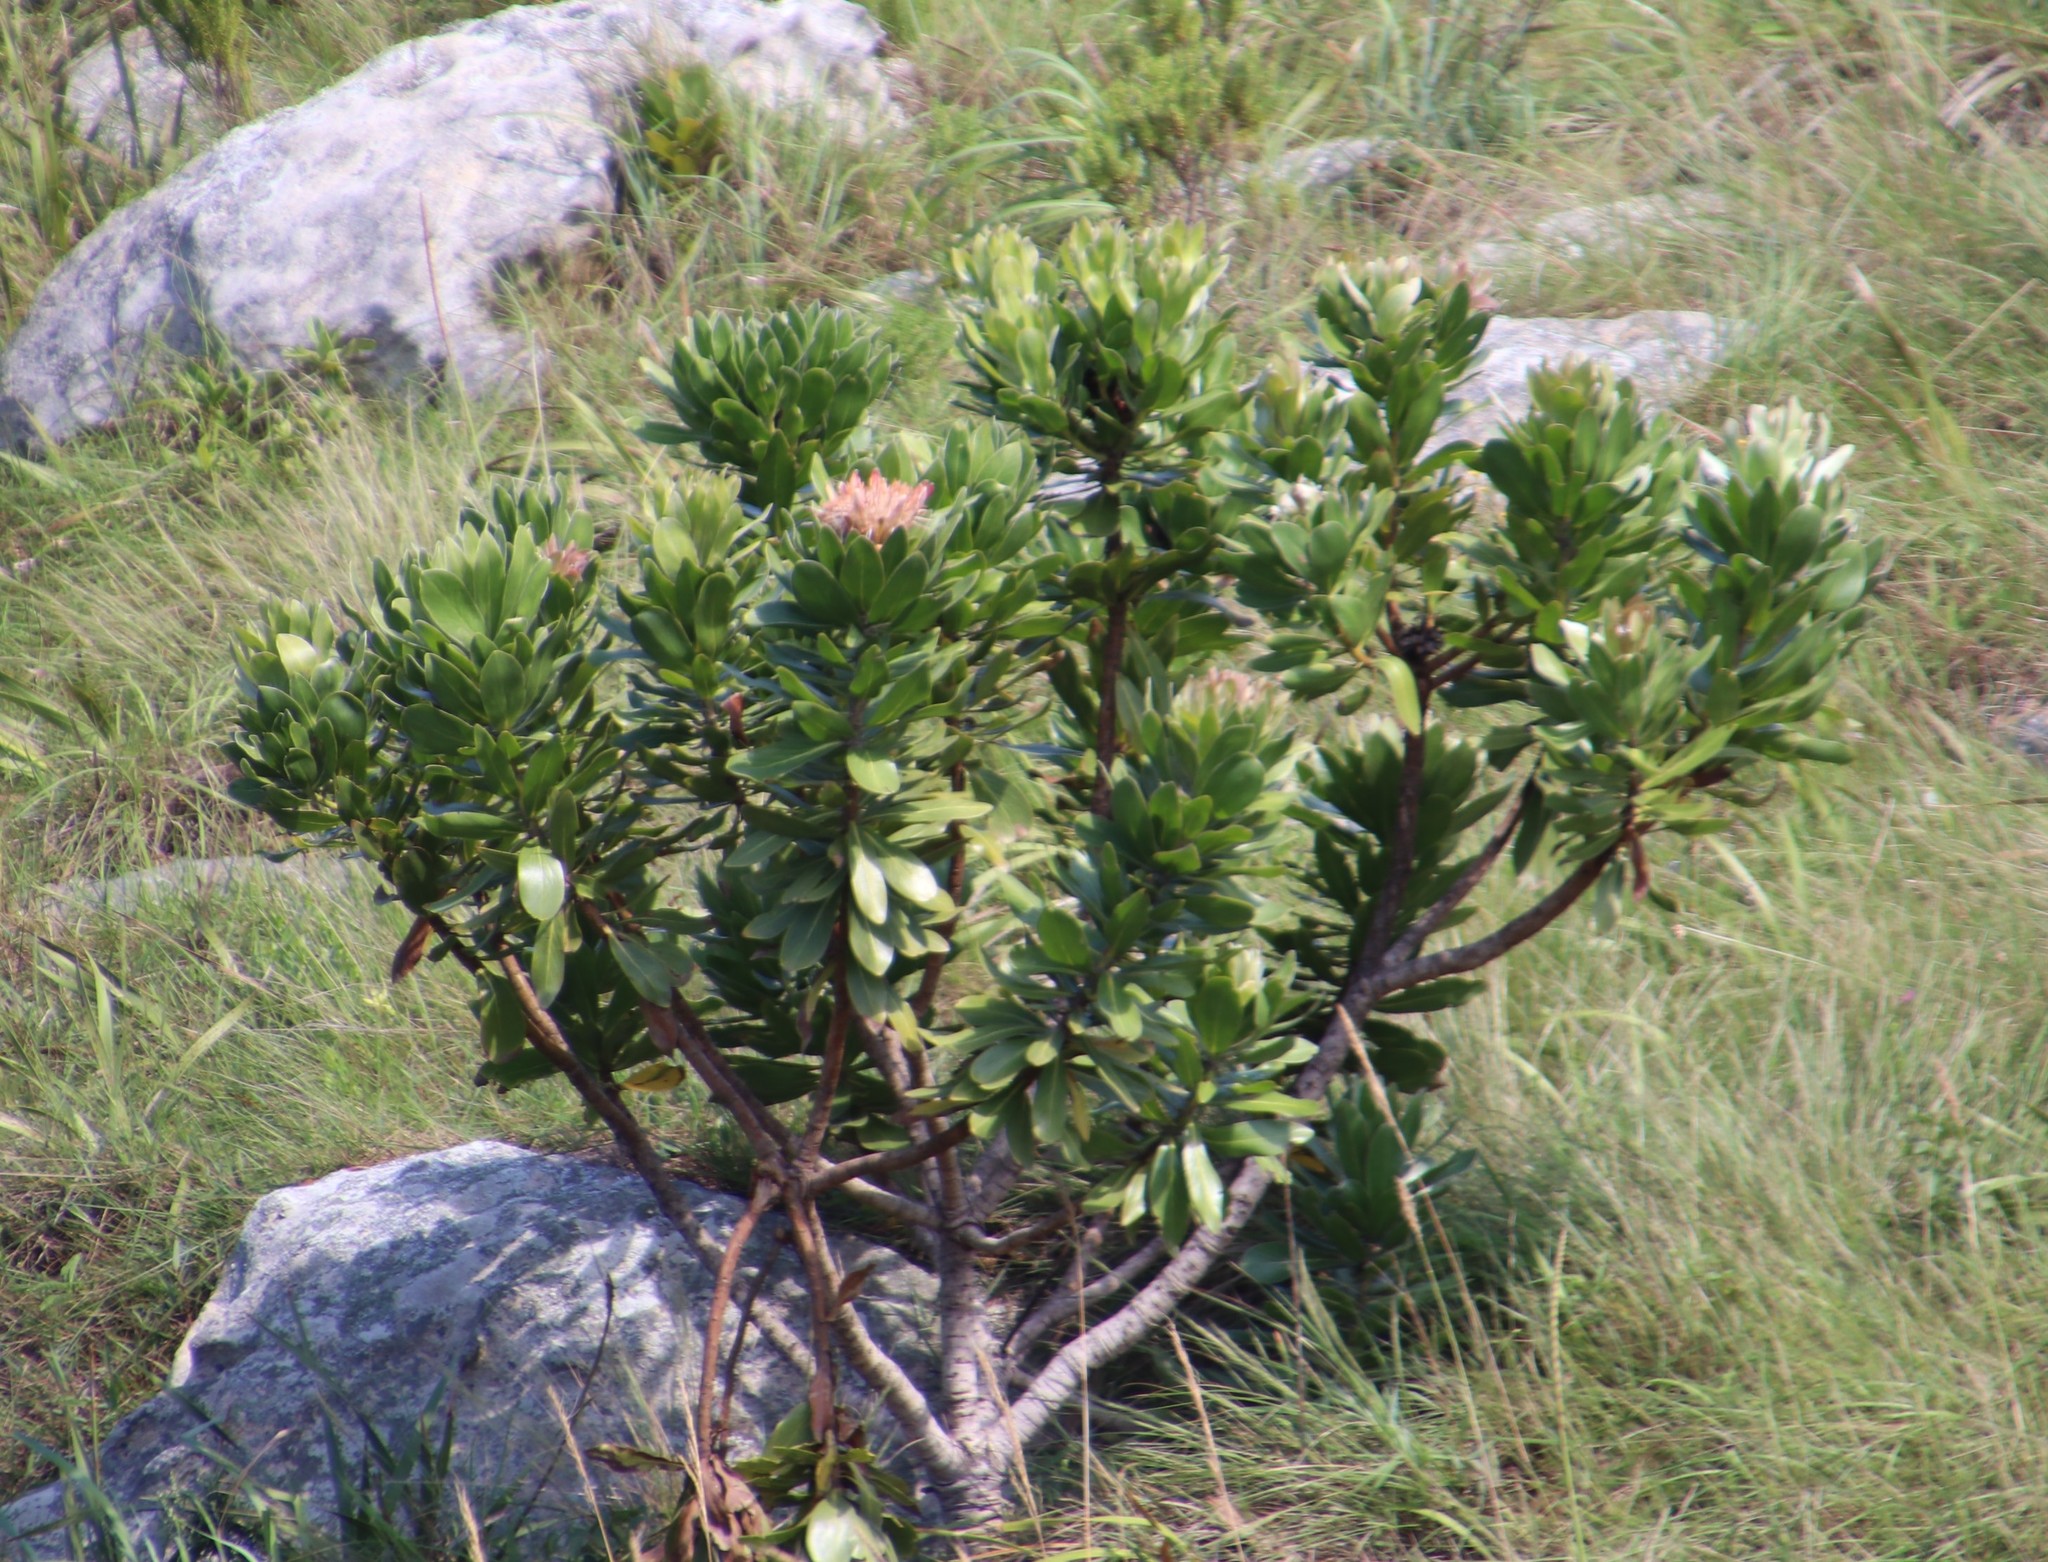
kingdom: Plantae
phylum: Tracheophyta
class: Magnoliopsida
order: Proteales
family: Proteaceae
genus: Protea
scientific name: Protea roupelliae
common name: Silver sugarbush
